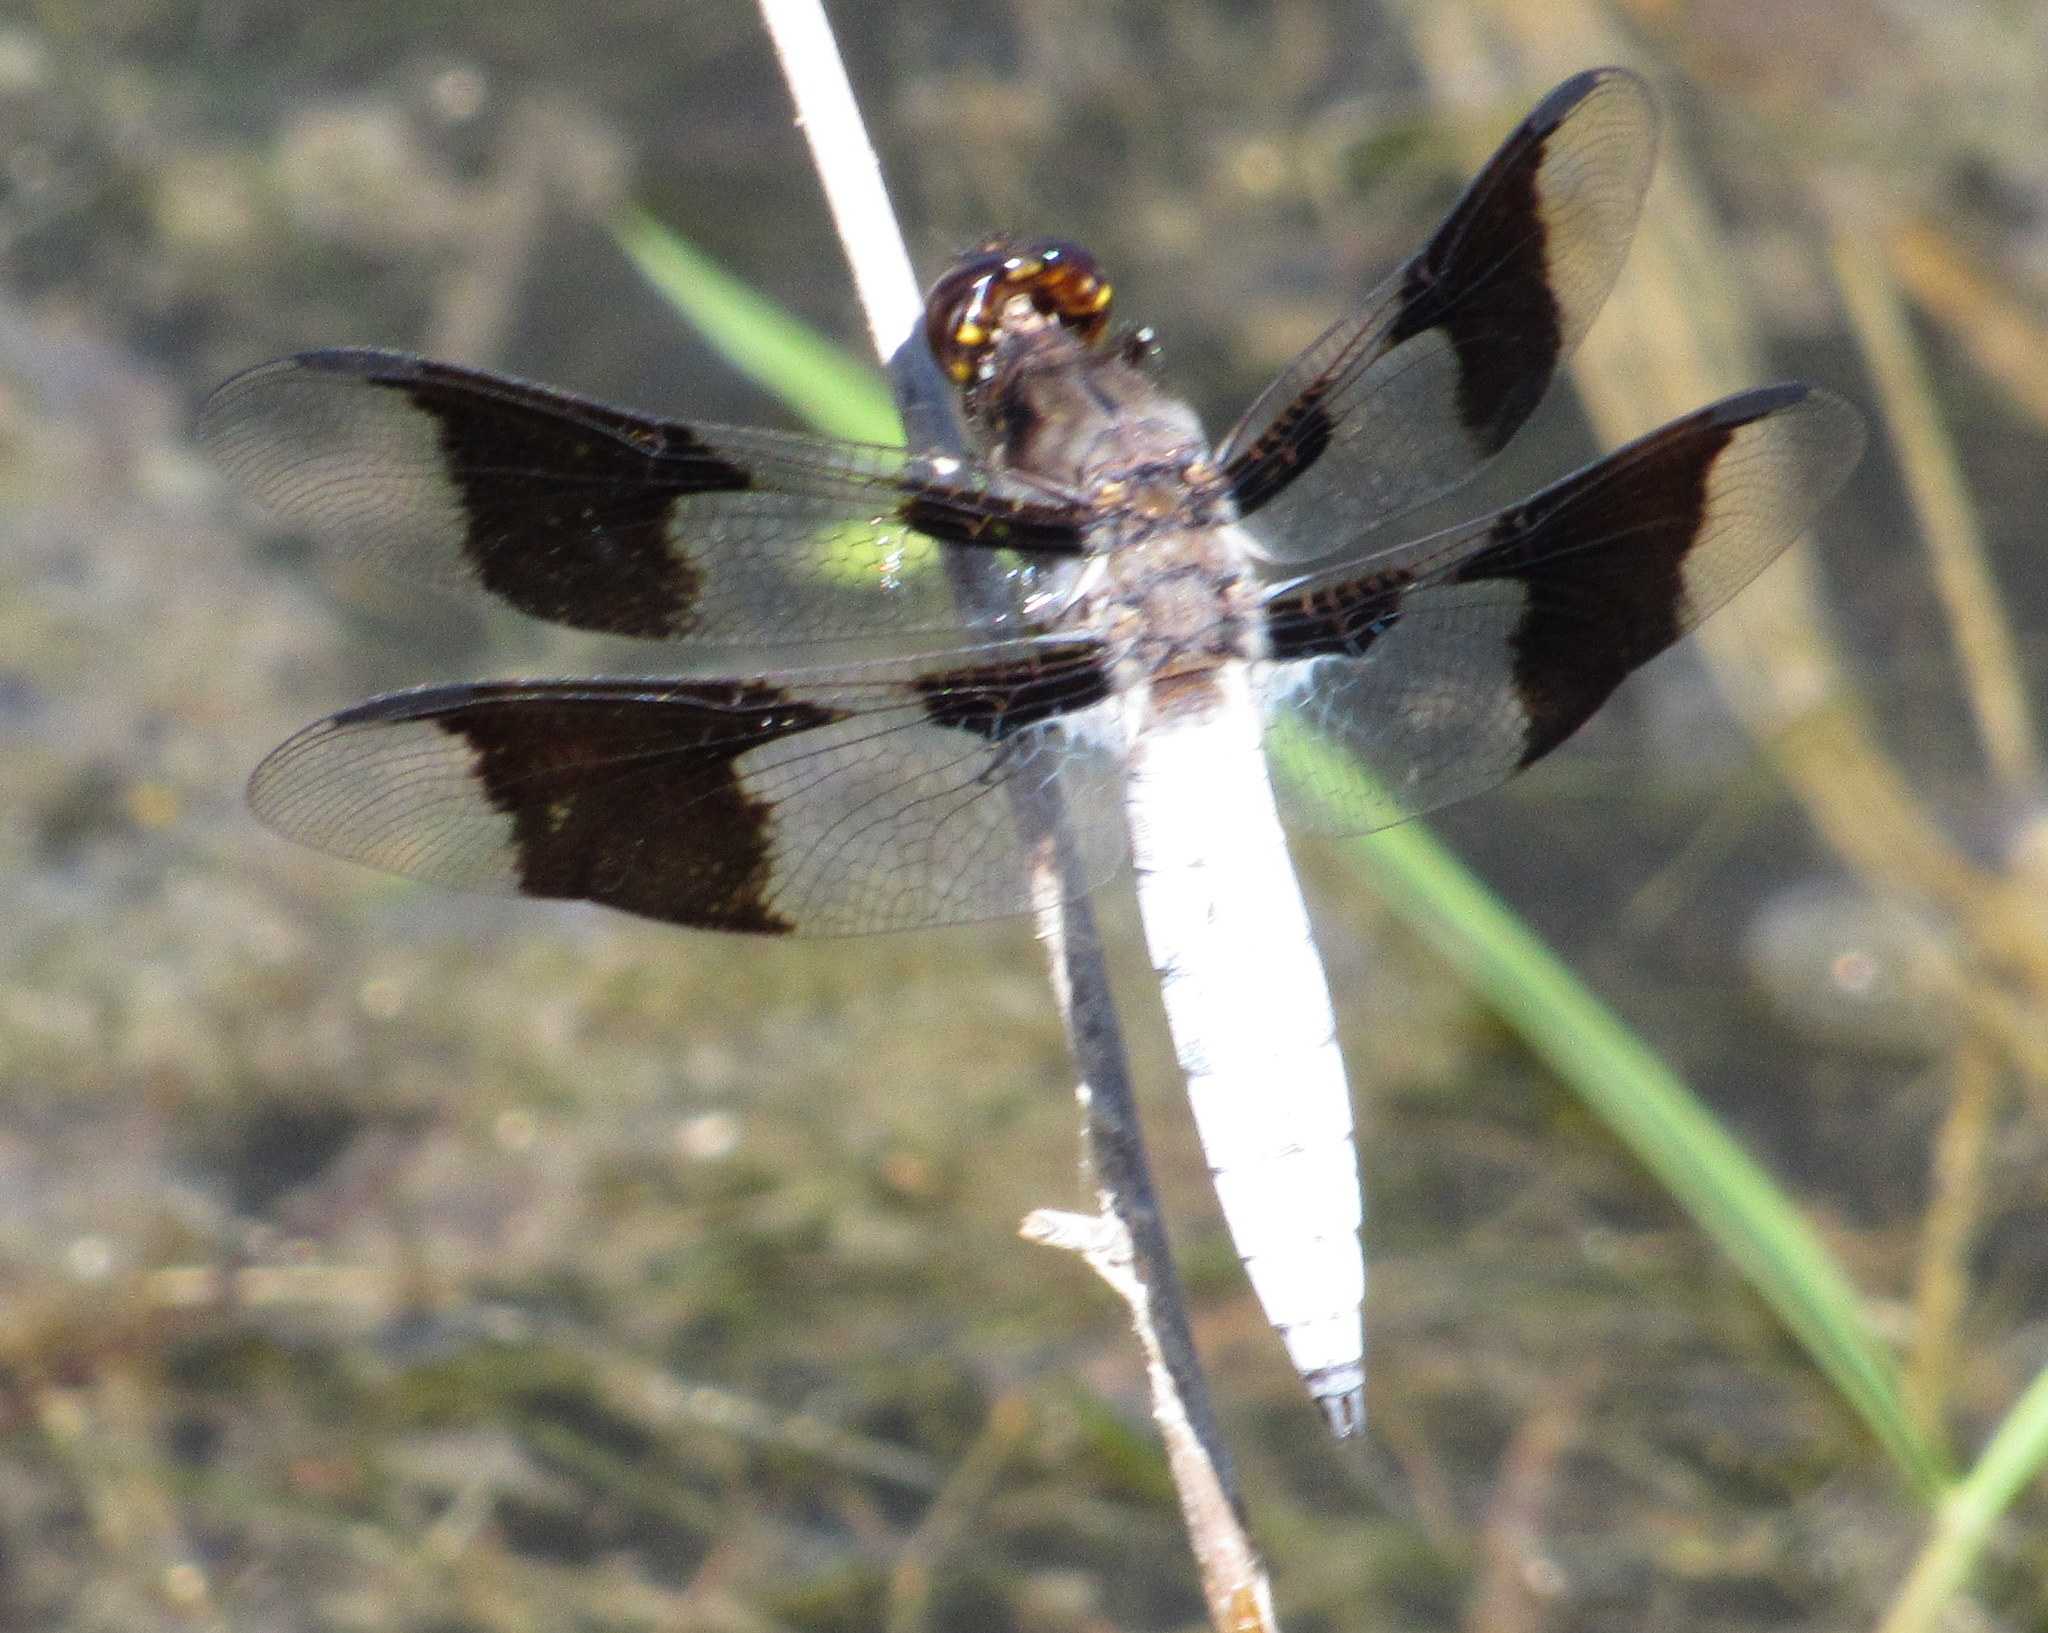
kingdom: Animalia
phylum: Arthropoda
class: Insecta
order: Odonata
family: Libellulidae
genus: Plathemis
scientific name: Plathemis lydia
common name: Common whitetail
